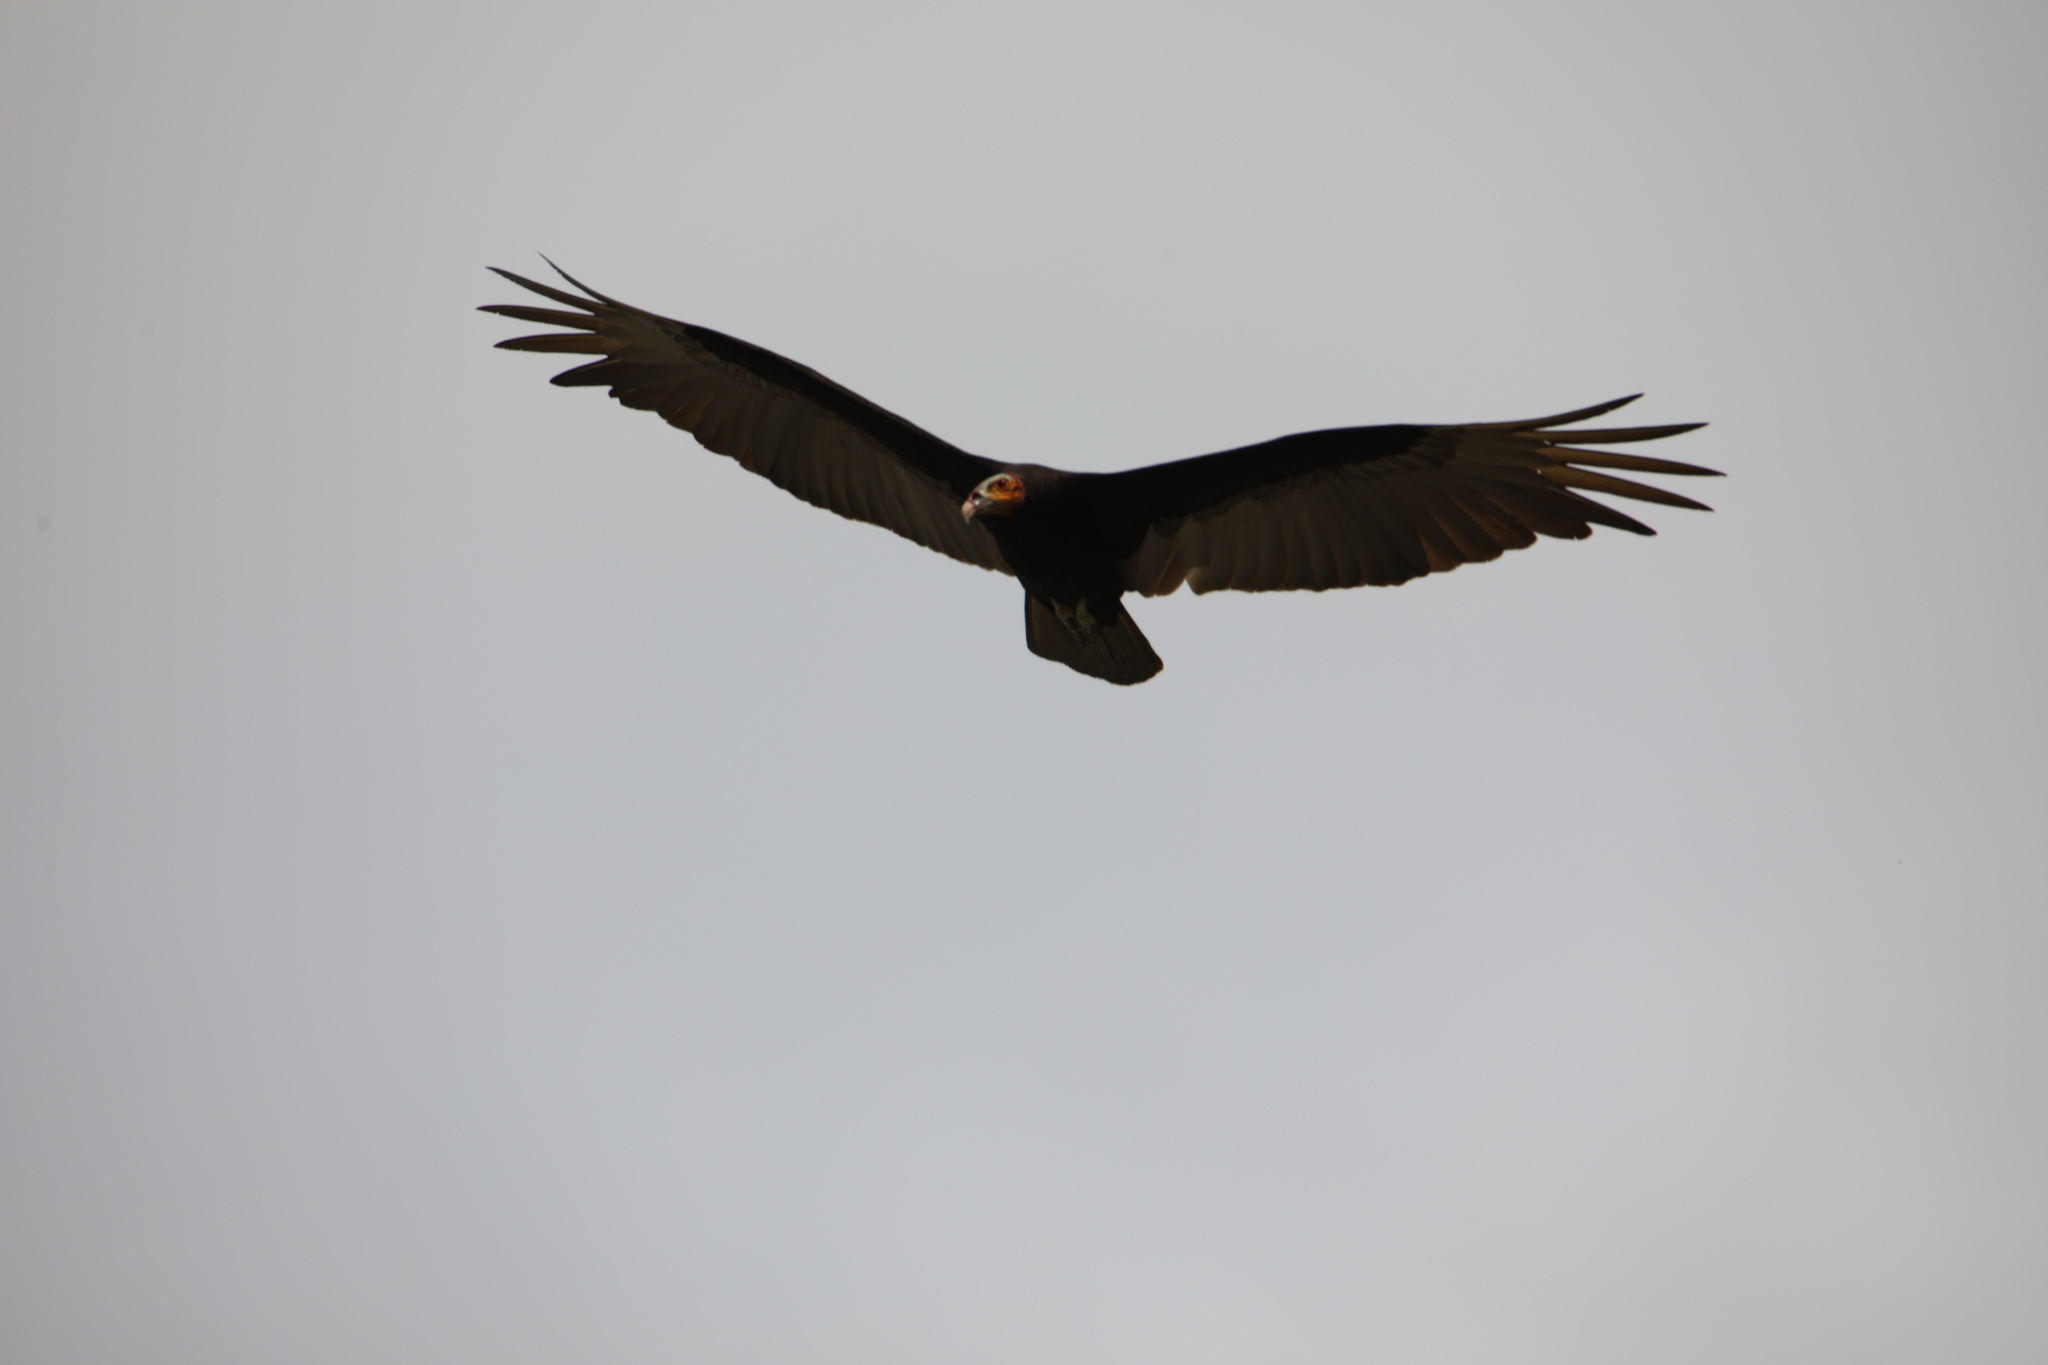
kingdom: Animalia
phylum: Chordata
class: Aves
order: Accipitriformes
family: Cathartidae
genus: Cathartes
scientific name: Cathartes burrovianus
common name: Lesser yellow-headed vulture
